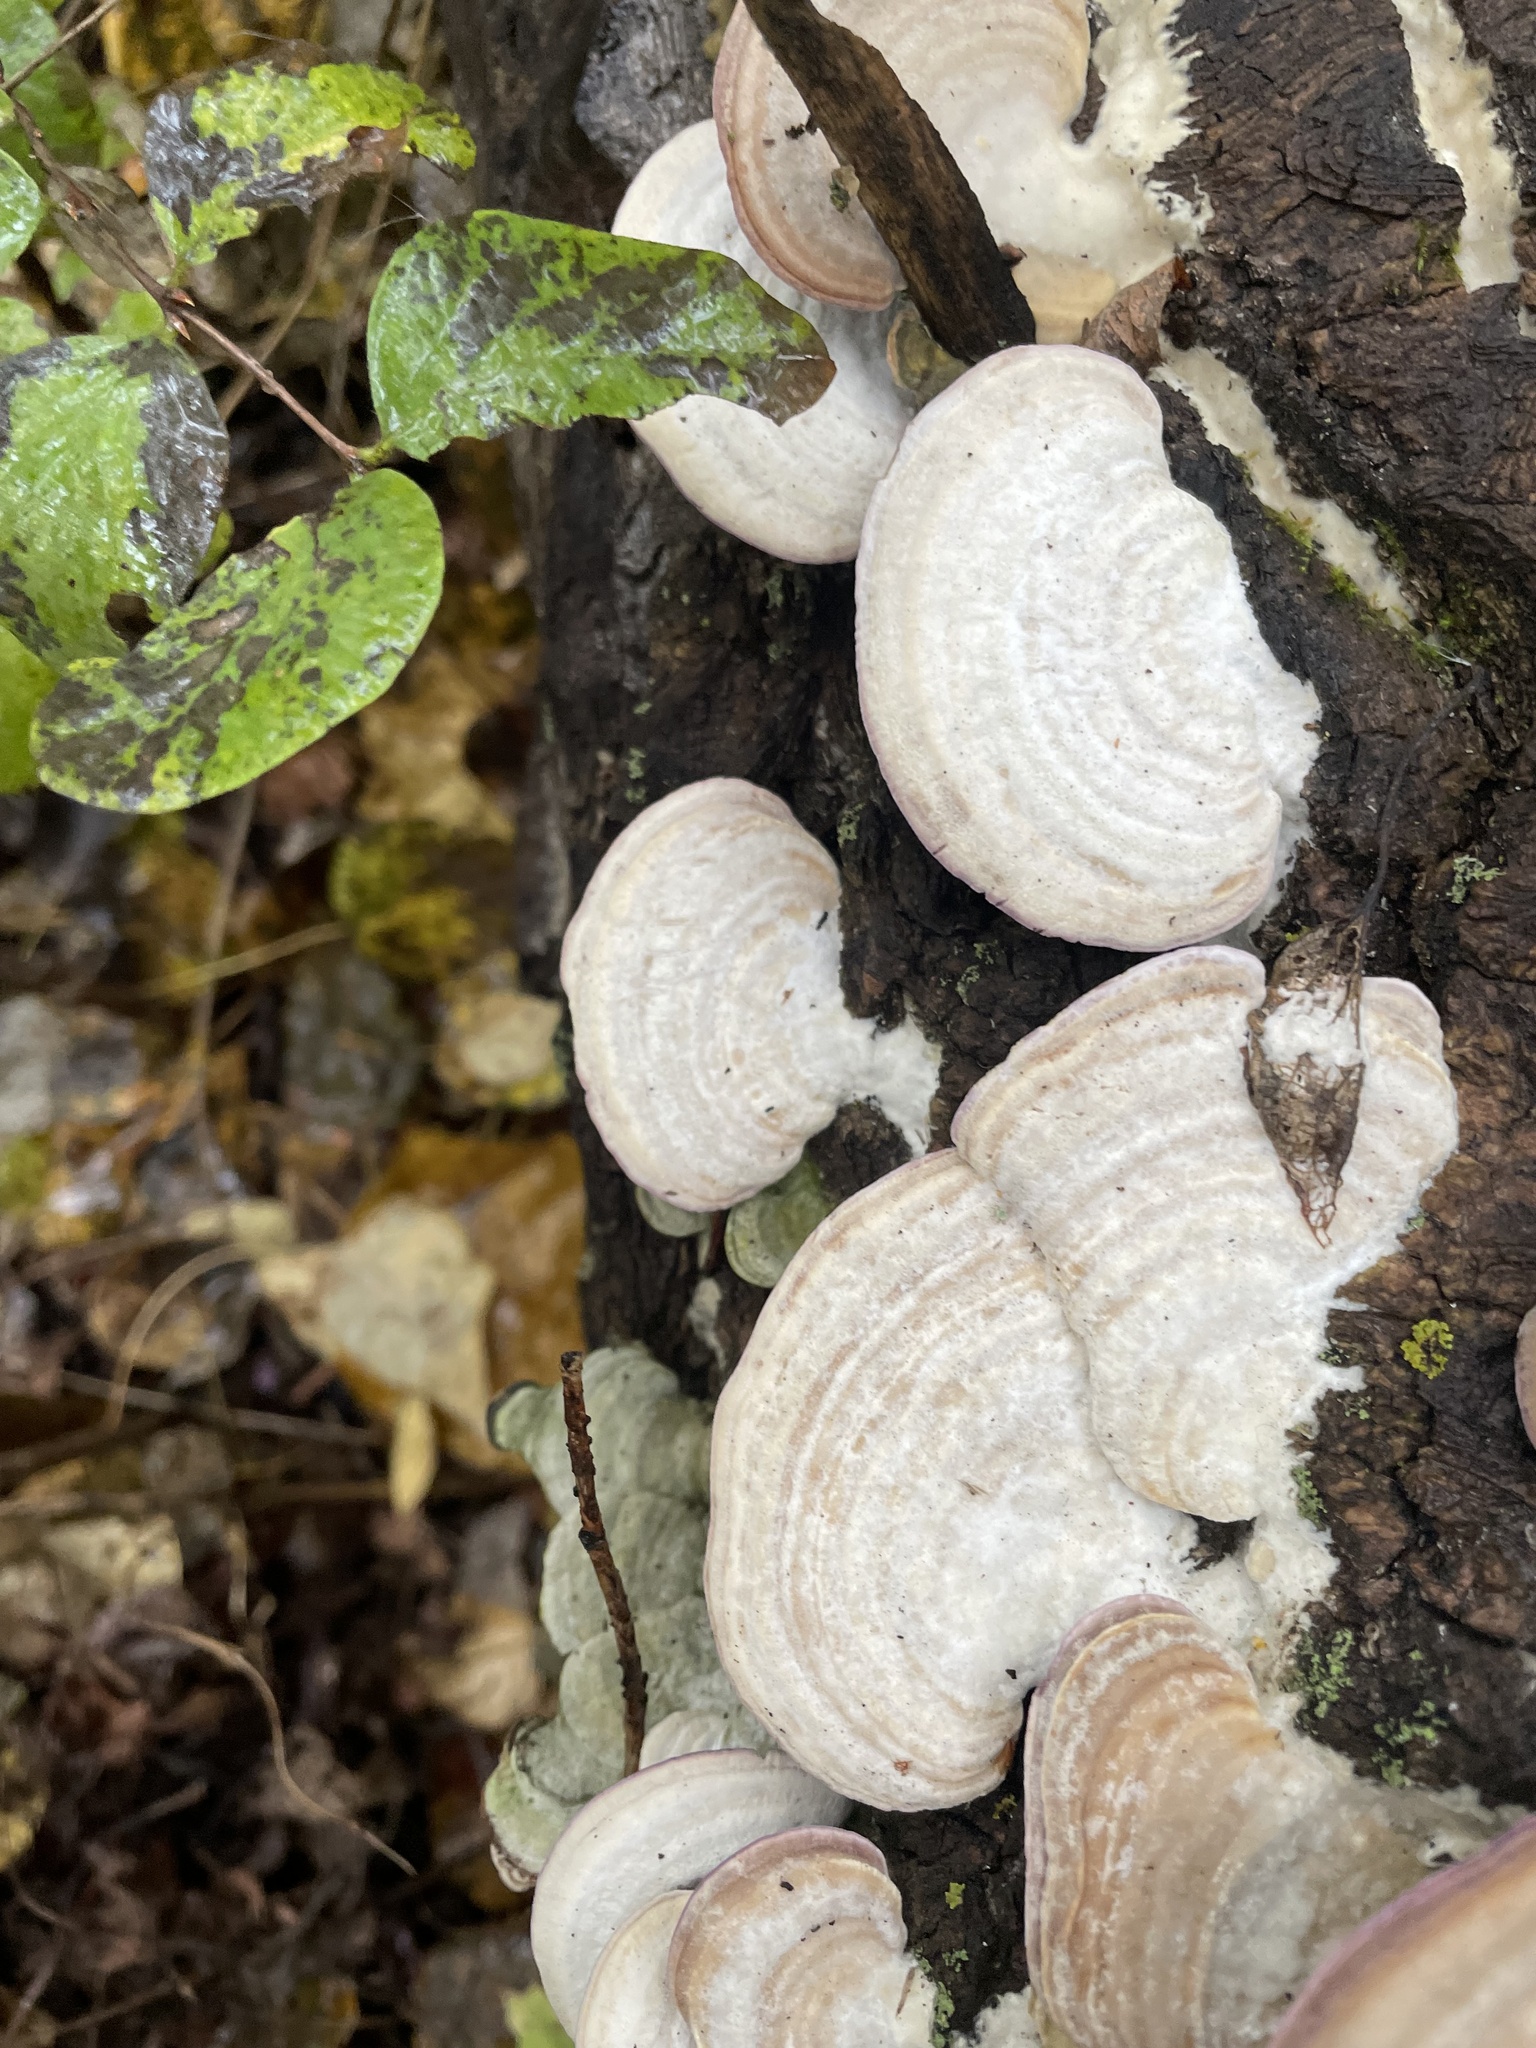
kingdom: Fungi
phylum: Basidiomycota
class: Agaricomycetes
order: Hymenochaetales
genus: Trichaptum
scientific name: Trichaptum subchartaceum
